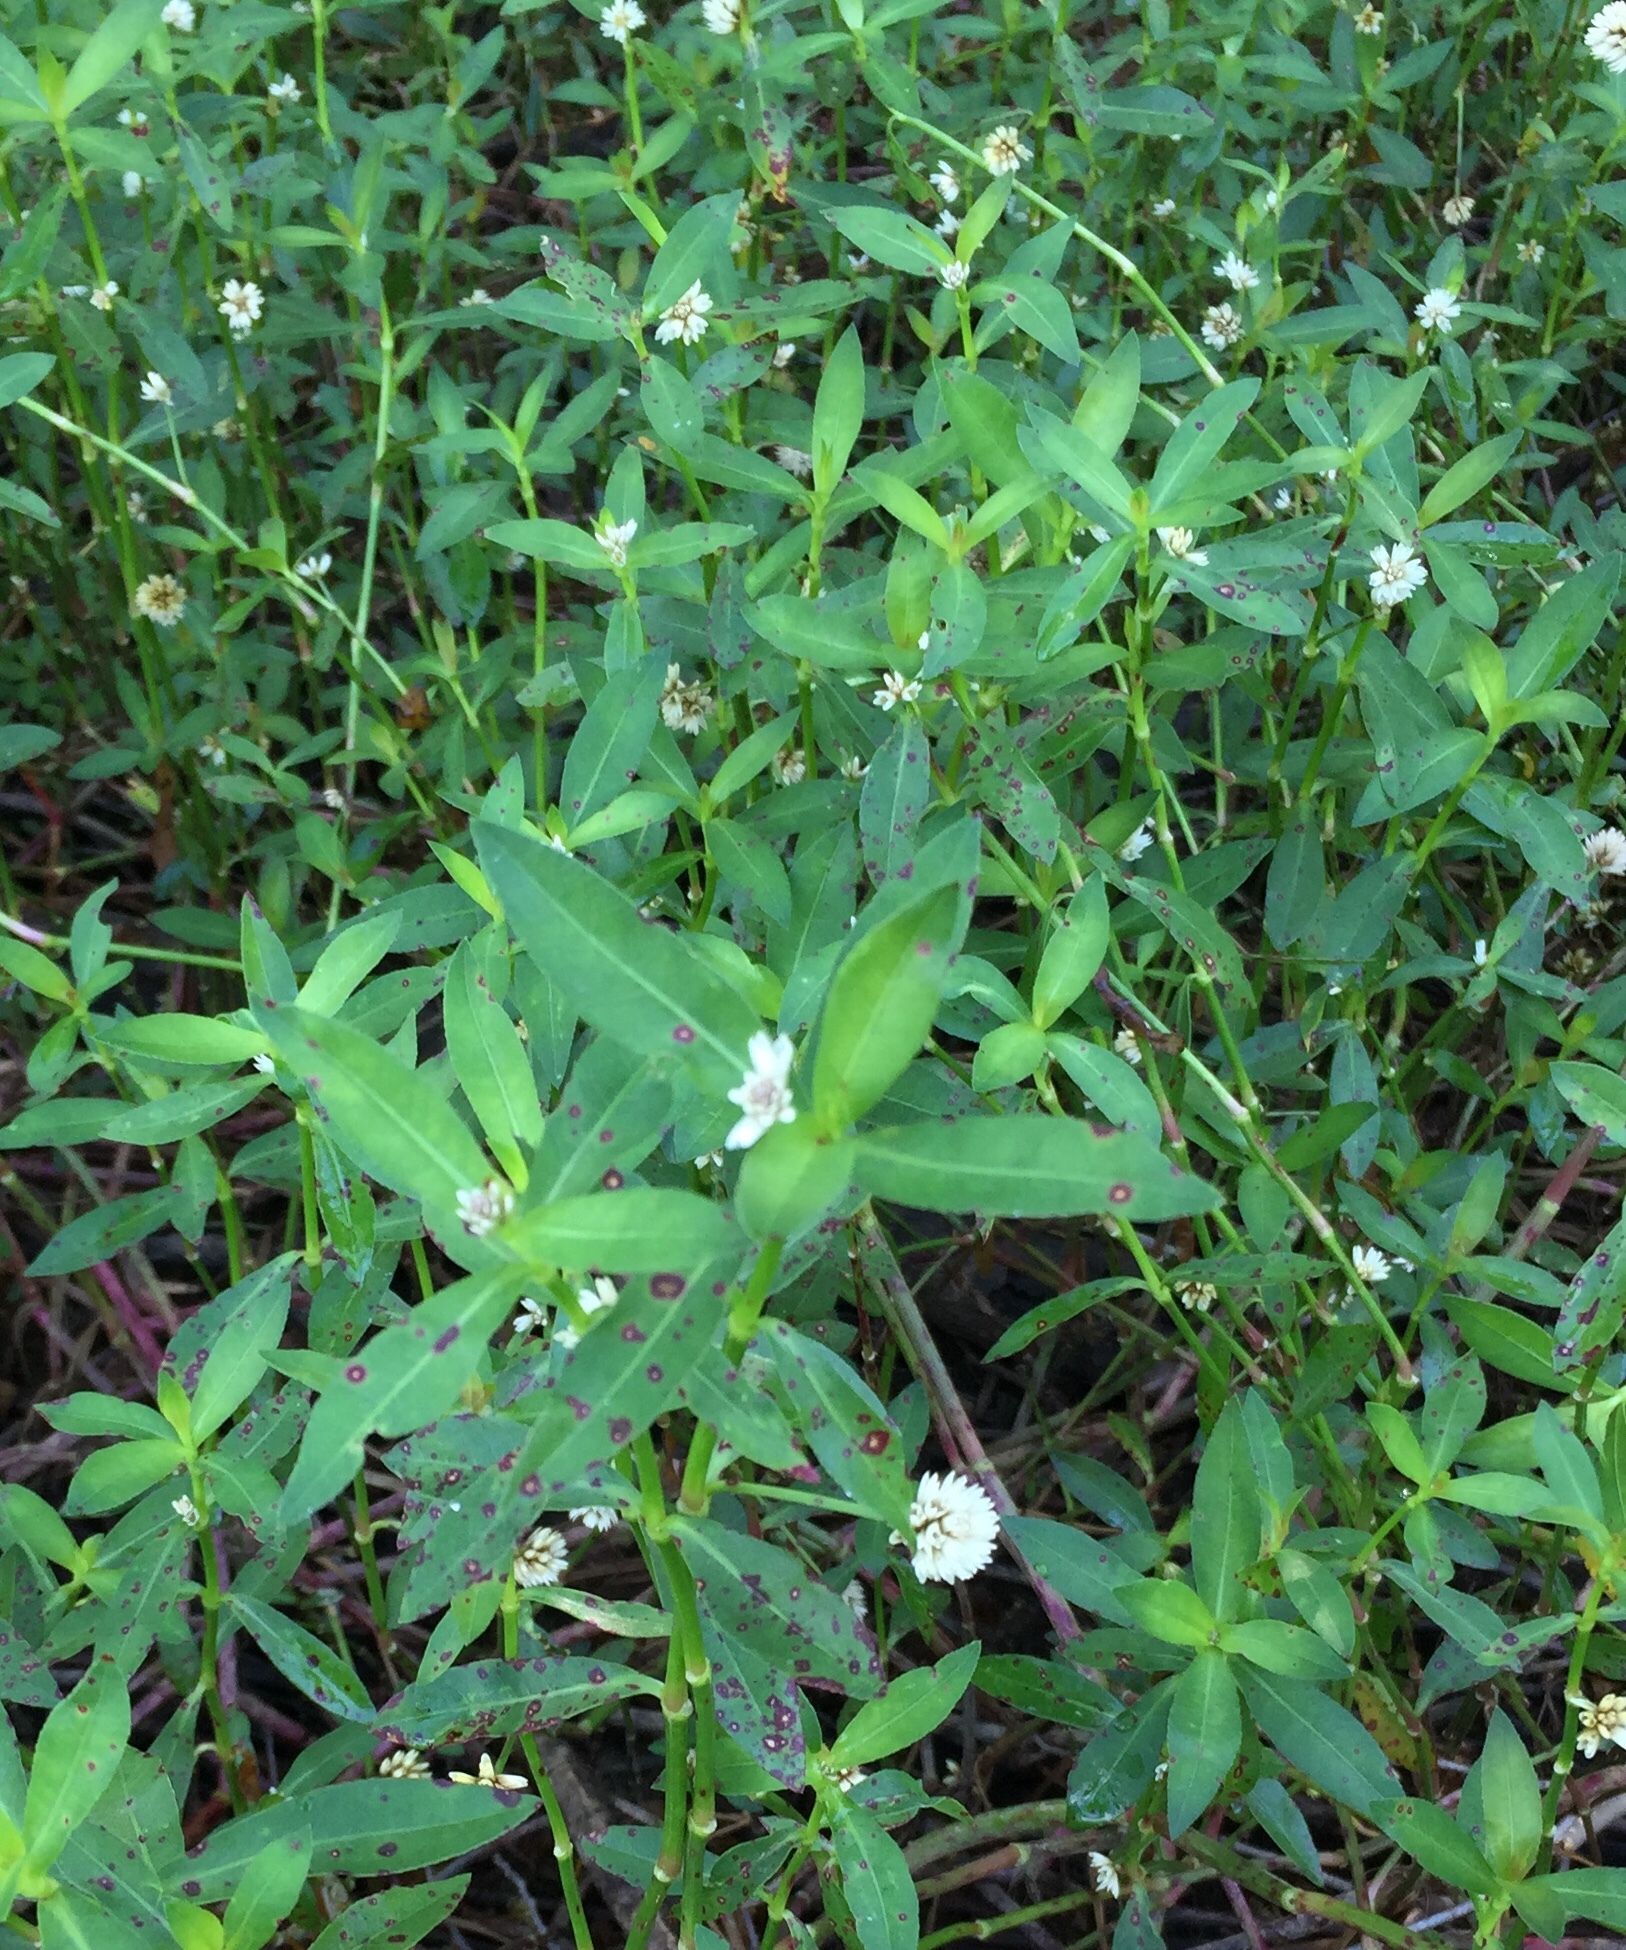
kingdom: Plantae
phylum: Tracheophyta
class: Magnoliopsida
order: Caryophyllales
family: Amaranthaceae
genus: Alternanthera
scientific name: Alternanthera philoxeroides
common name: Alligatorweed
